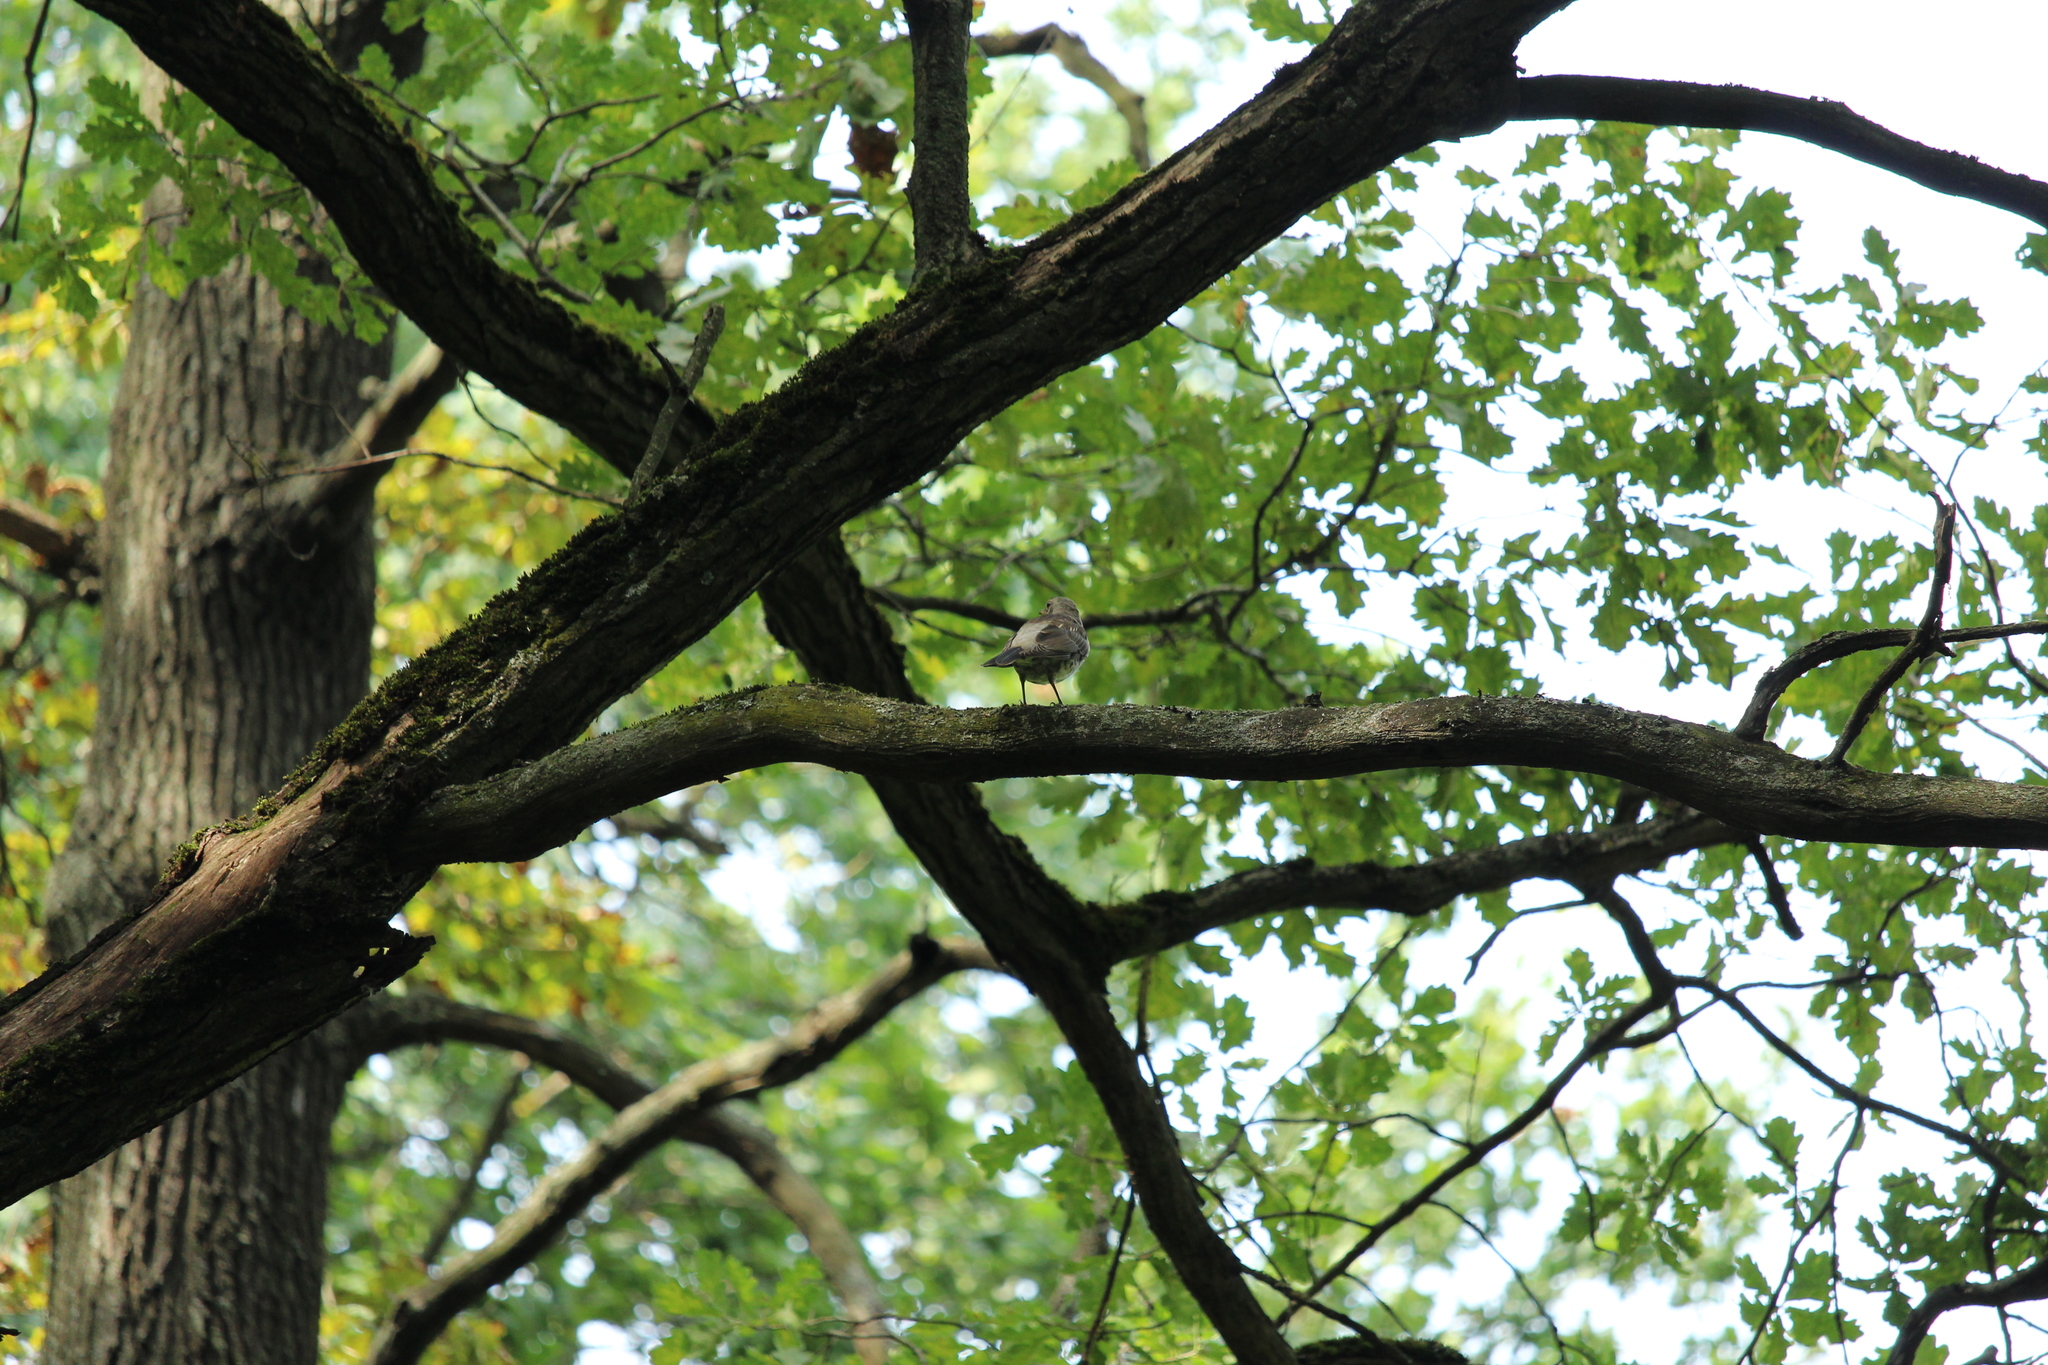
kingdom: Animalia
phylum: Chordata
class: Aves
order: Passeriformes
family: Turdidae
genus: Turdus
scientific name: Turdus pilaris
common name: Fieldfare
